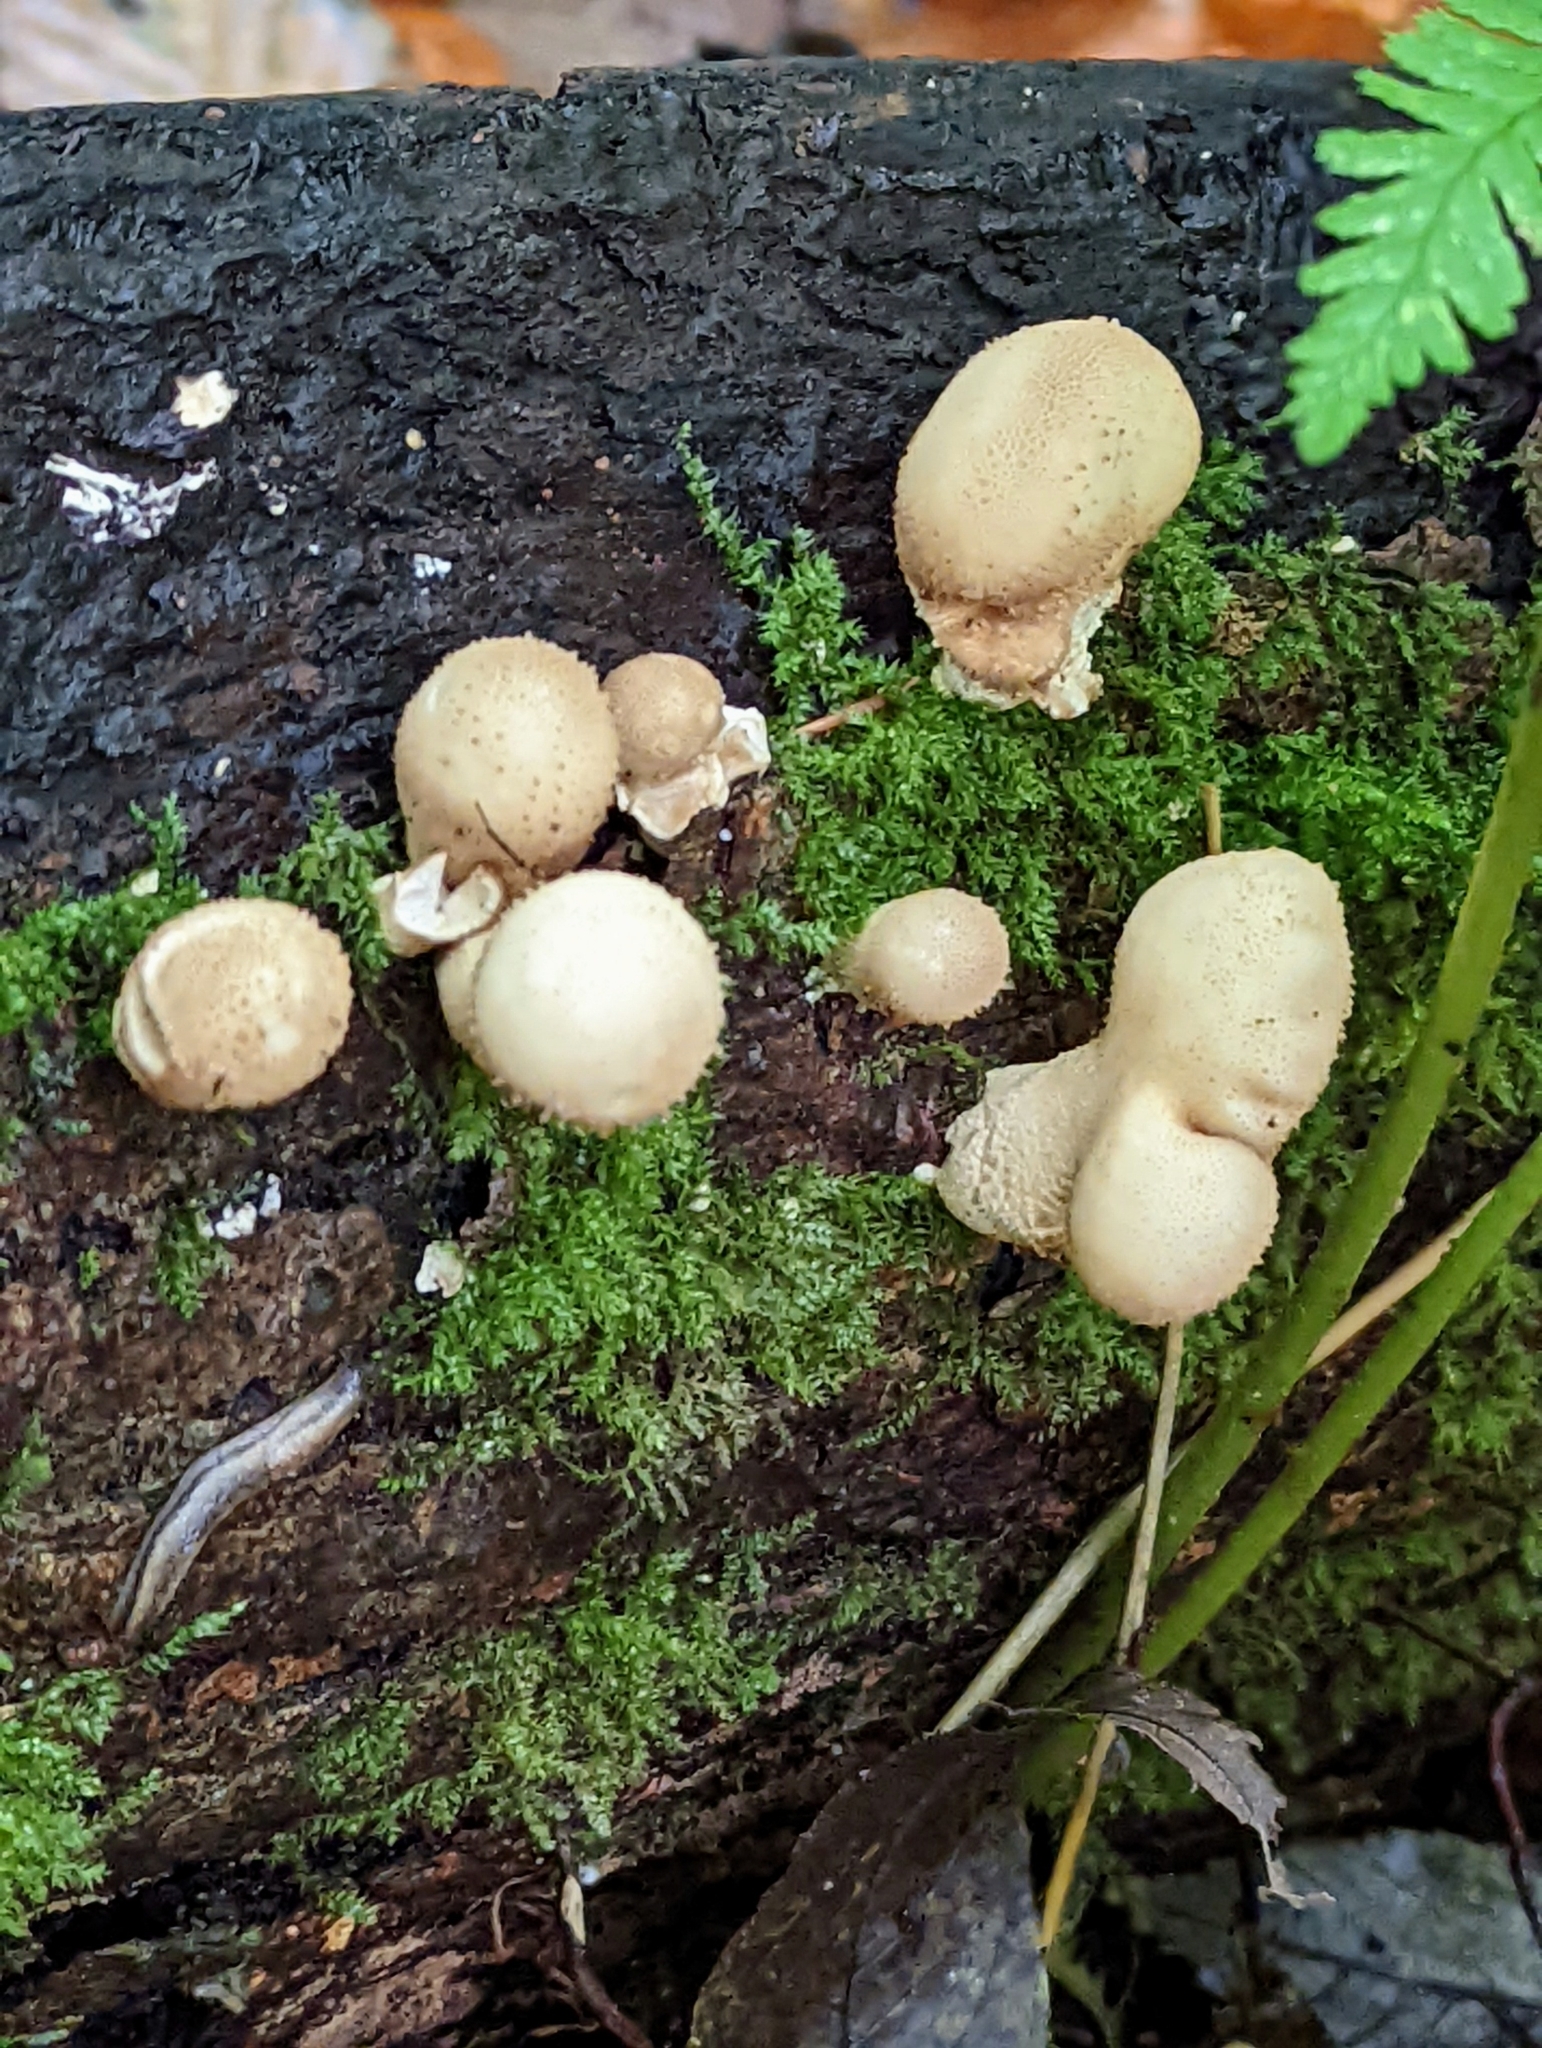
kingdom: Fungi
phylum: Basidiomycota
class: Agaricomycetes
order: Agaricales
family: Lycoperdaceae
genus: Apioperdon
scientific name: Apioperdon pyriforme
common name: Pear-shaped puffball
